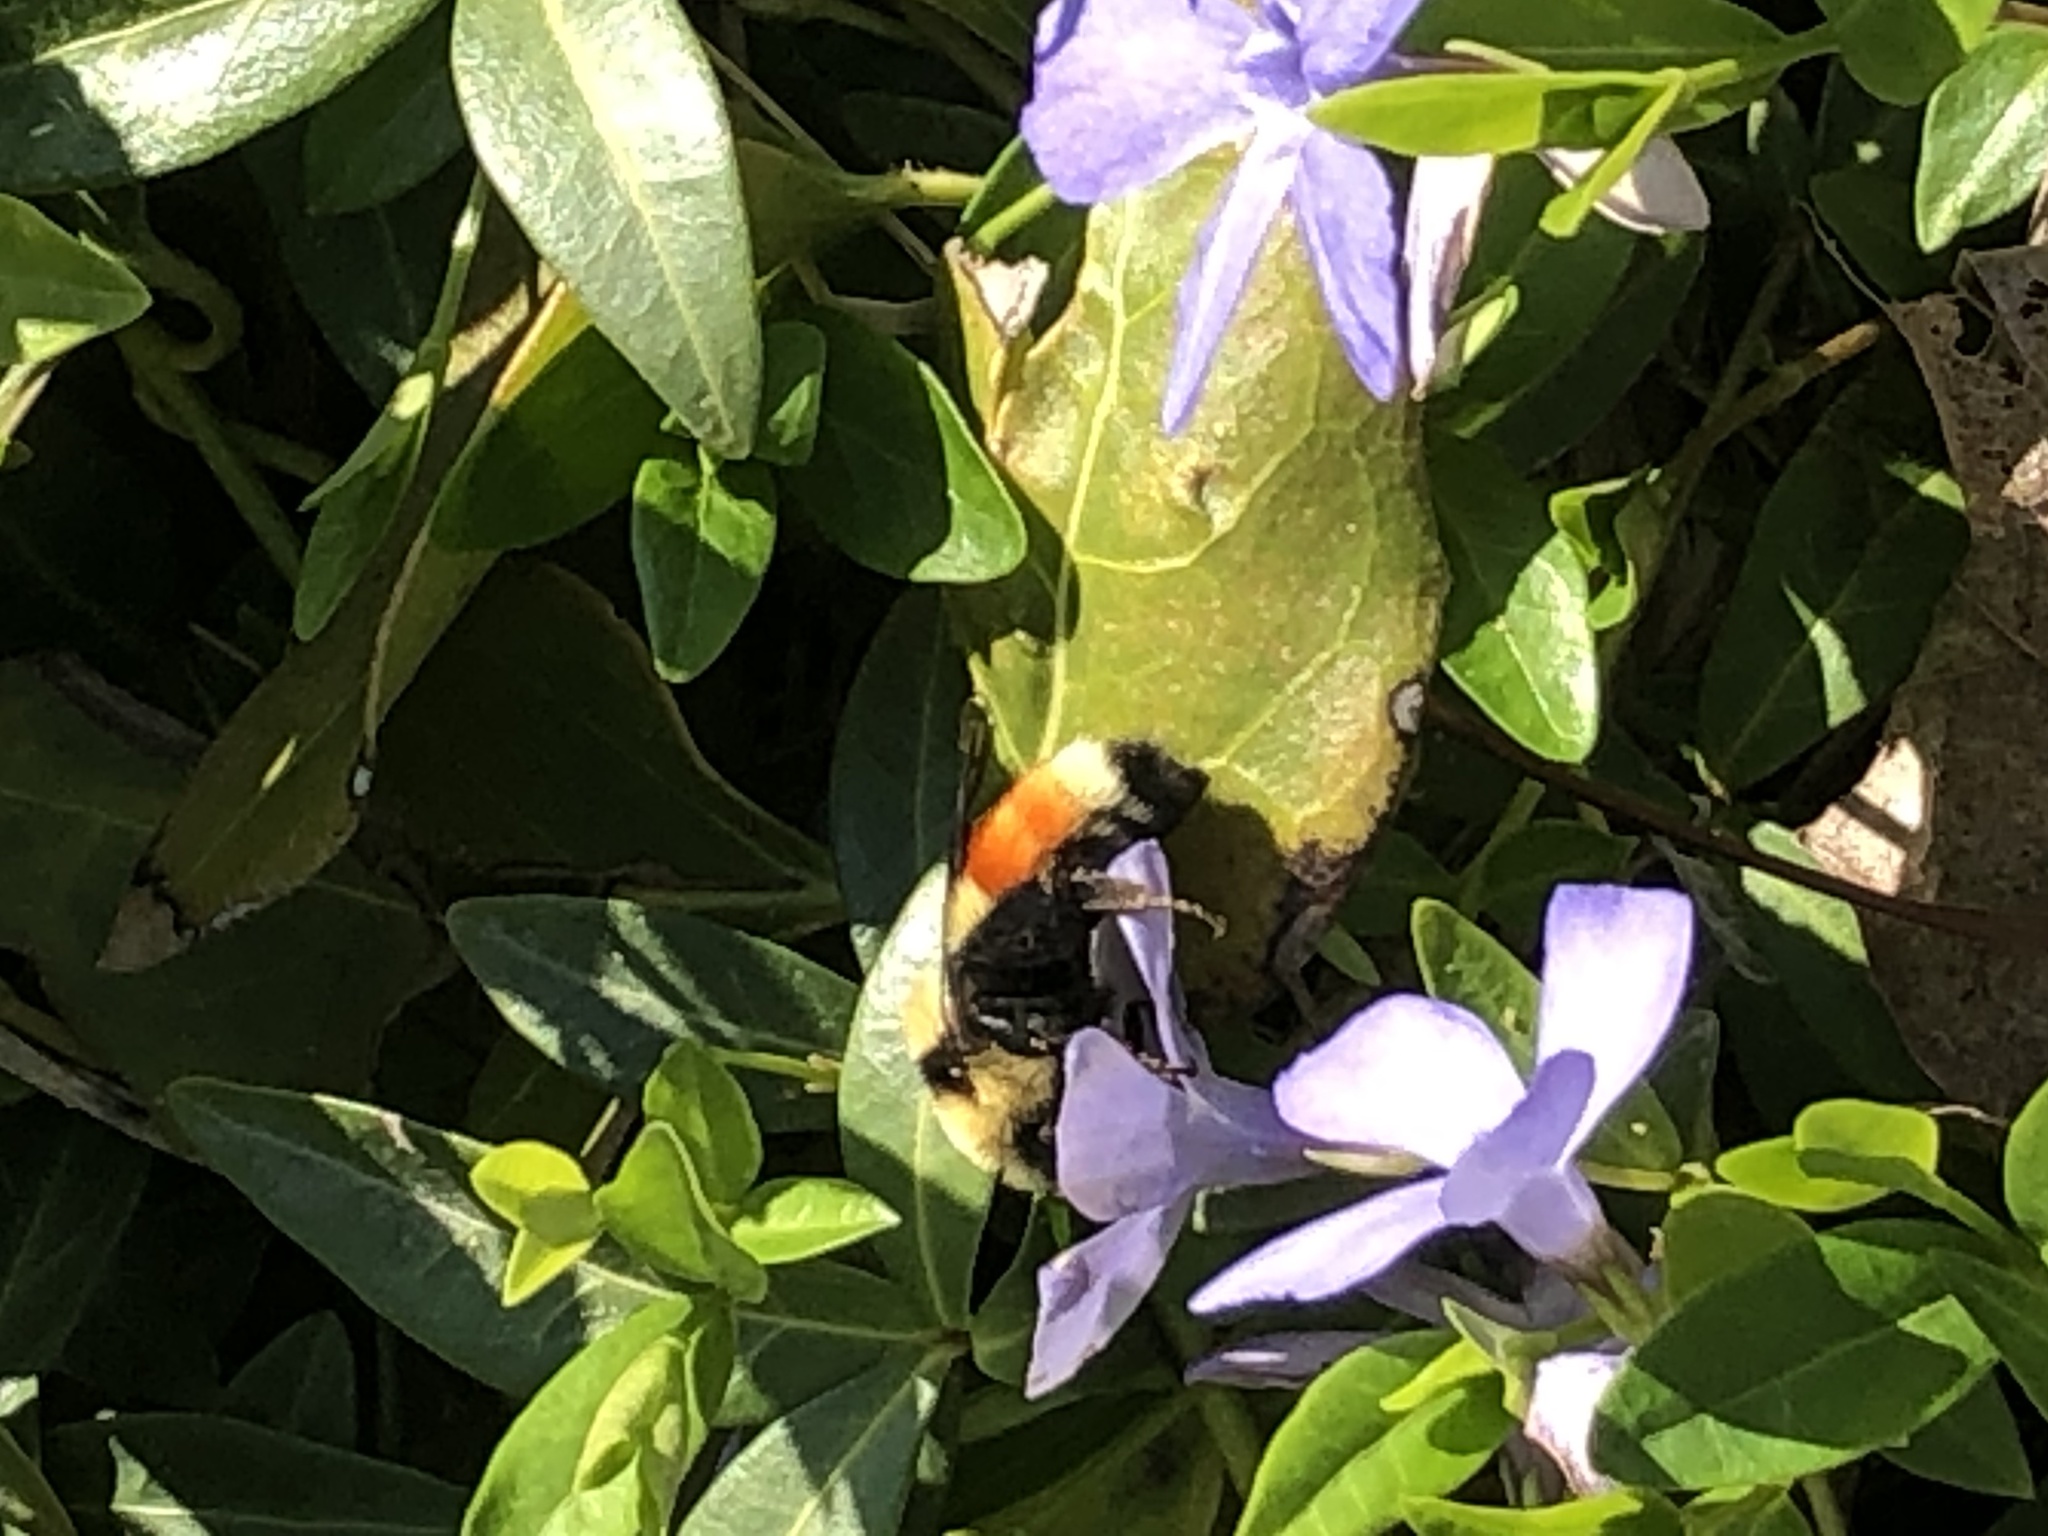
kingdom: Animalia
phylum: Arthropoda
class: Insecta
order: Hymenoptera
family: Apidae
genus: Bombus
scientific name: Bombus huntii
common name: Hunt bumble bee
